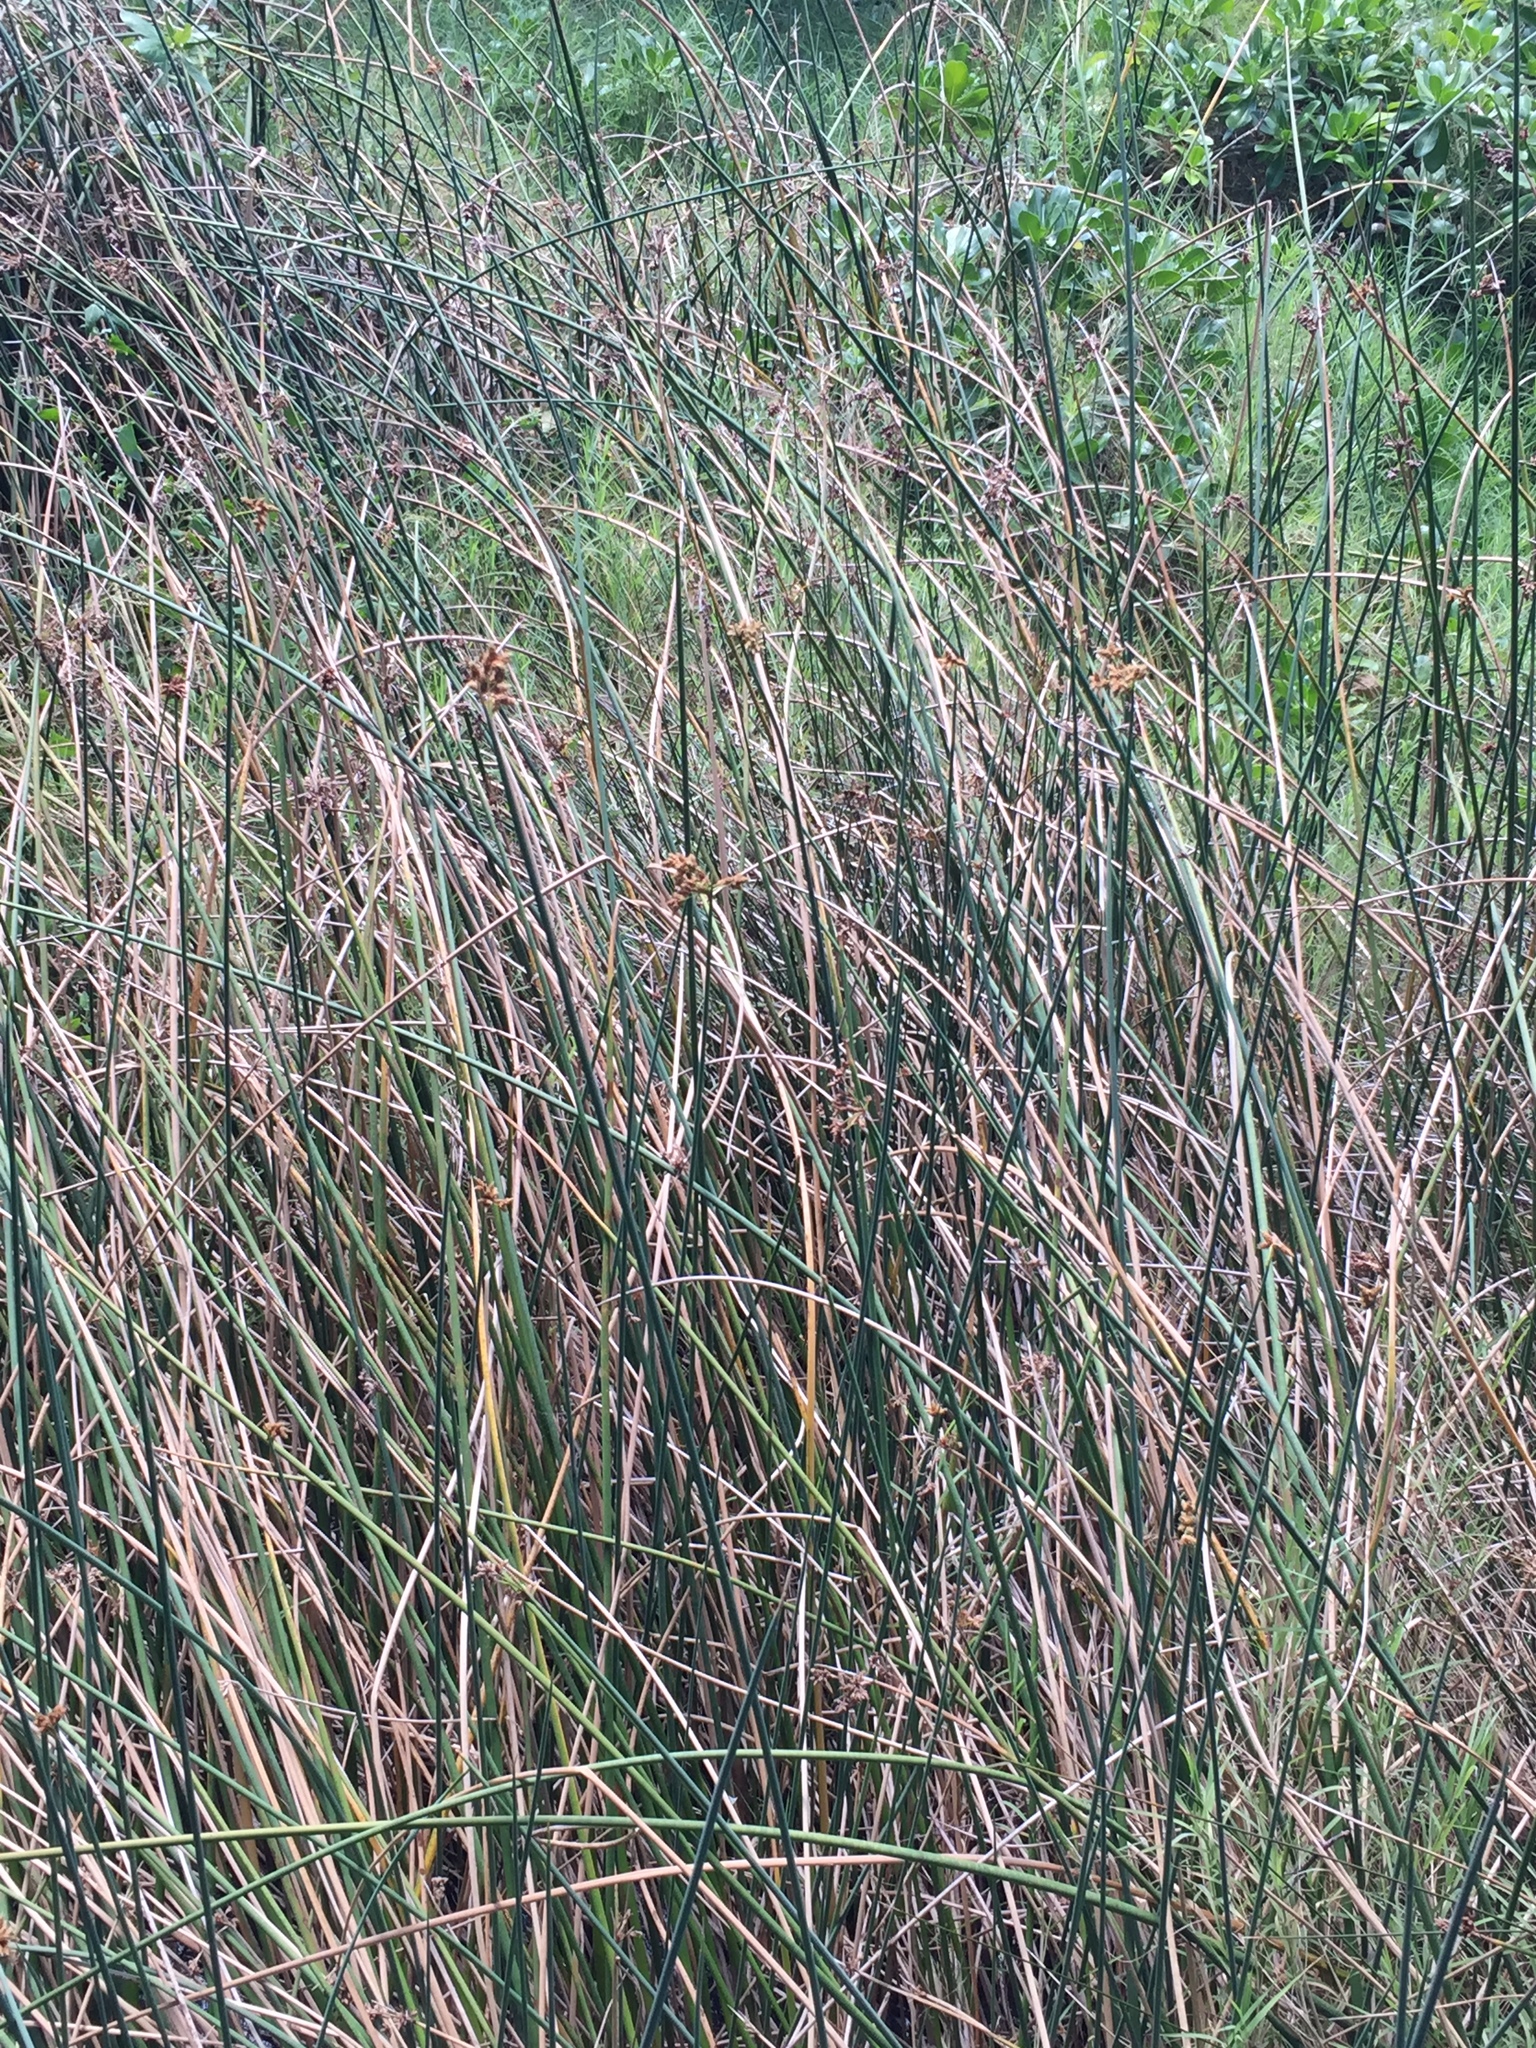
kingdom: Plantae
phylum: Tracheophyta
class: Liliopsida
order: Poales
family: Cyperaceae
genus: Schoenoplectus
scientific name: Schoenoplectus tabernaemontani
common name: Grey club-rush
